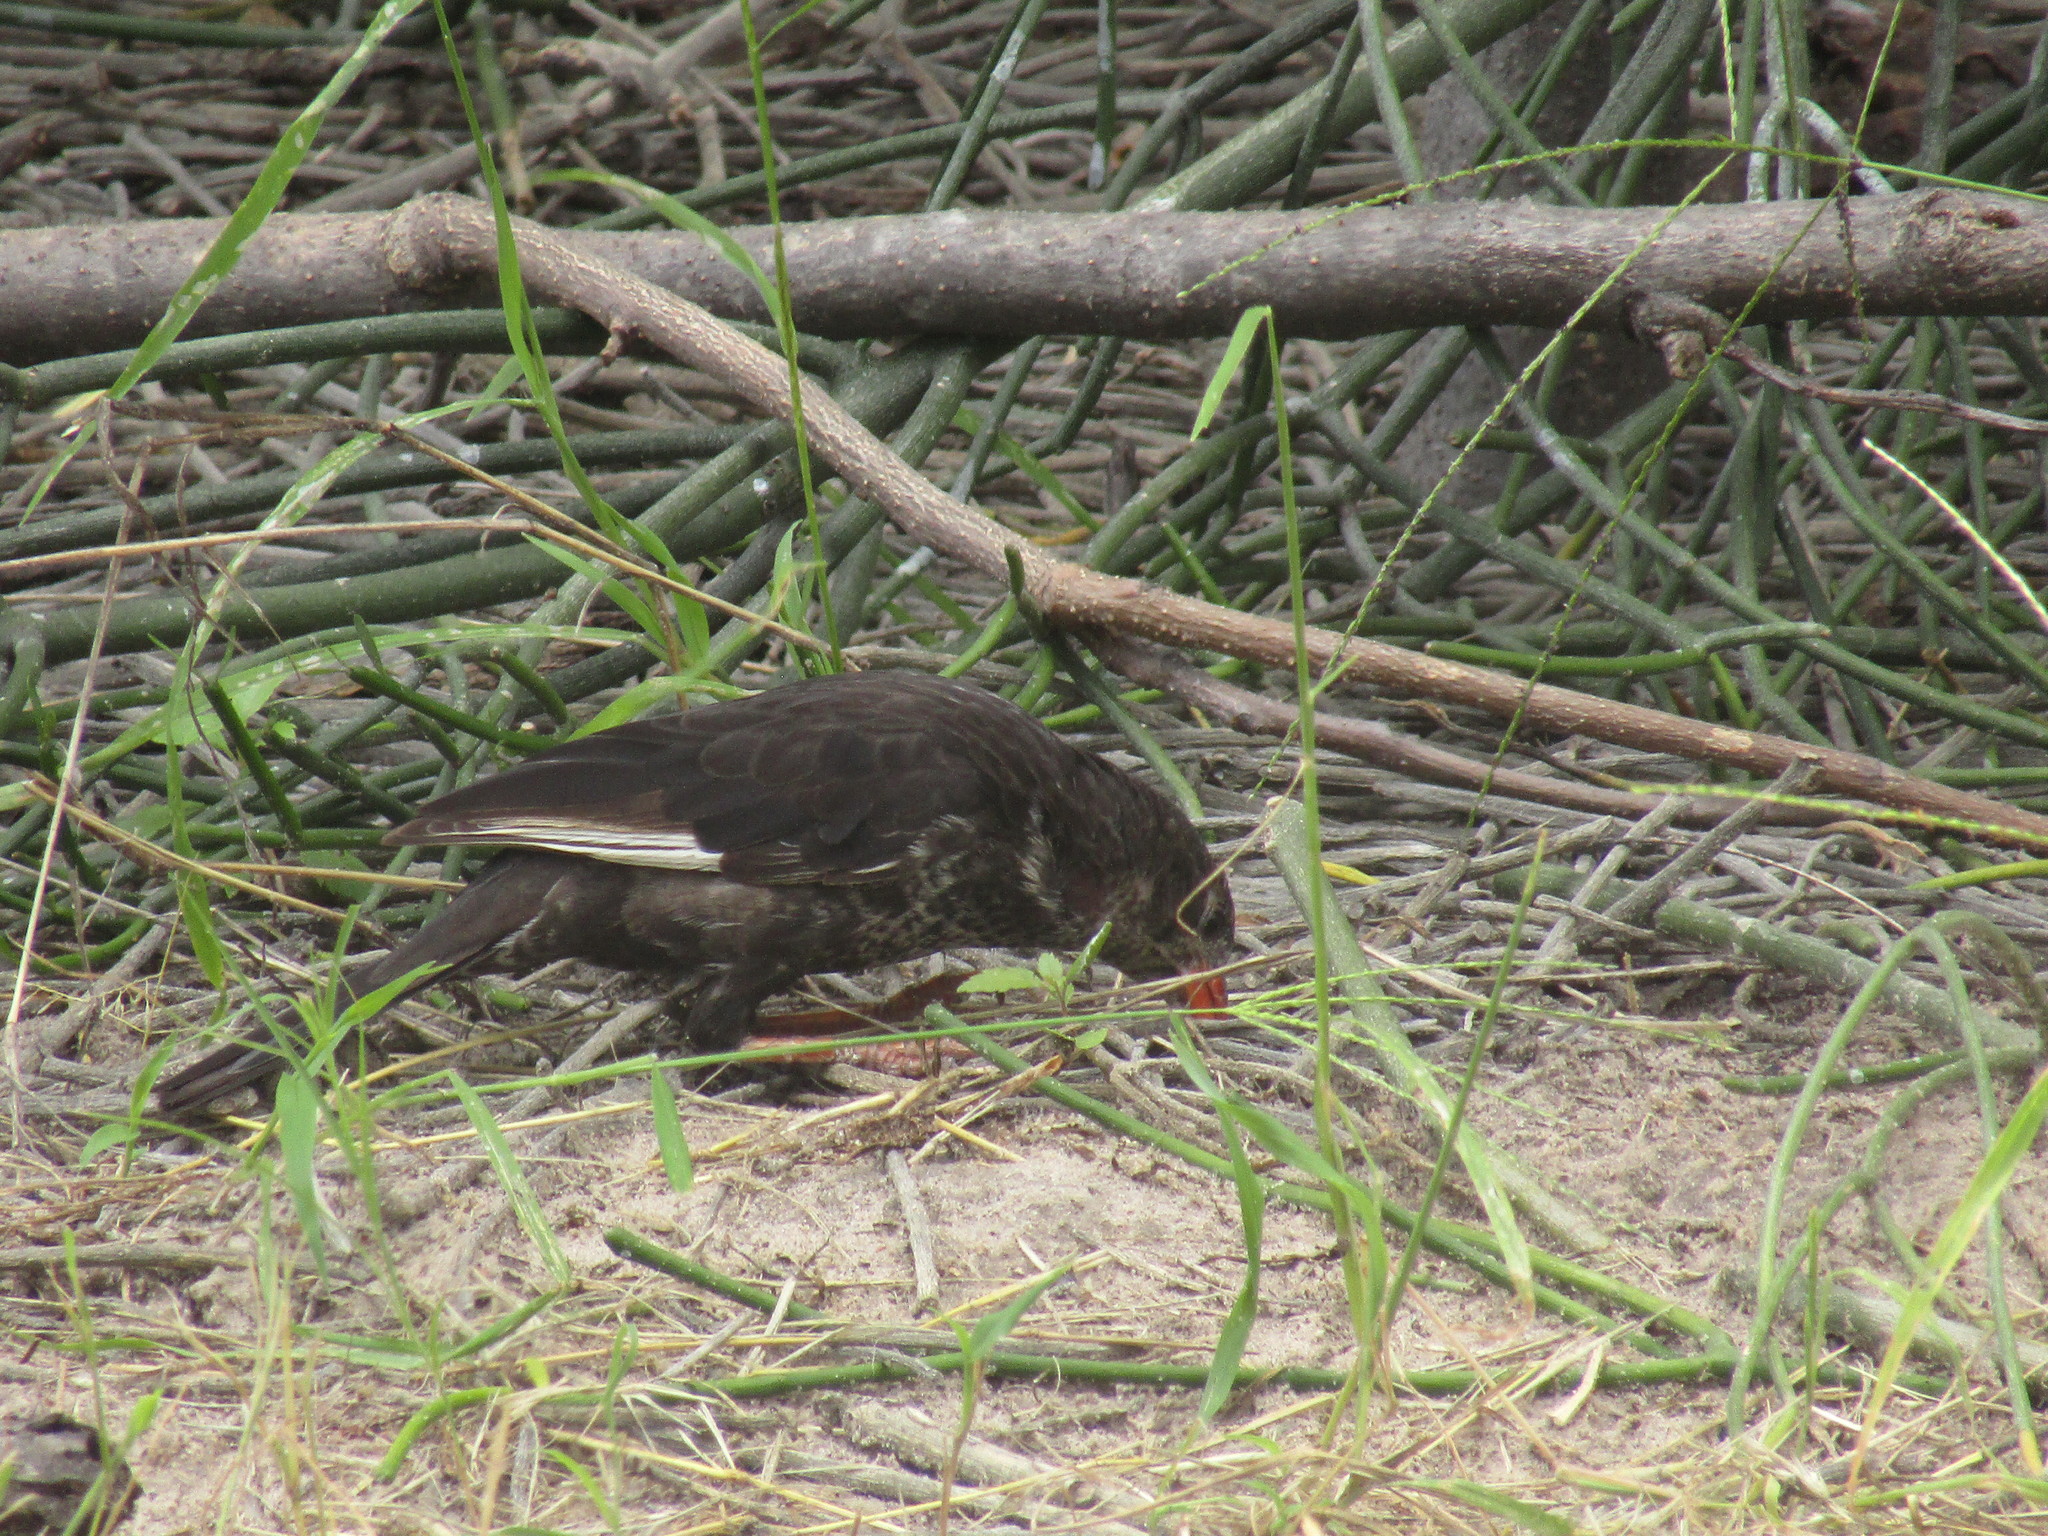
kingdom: Animalia
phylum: Chordata
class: Aves
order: Passeriformes
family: Ploceidae
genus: Bubalornis
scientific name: Bubalornis niger
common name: Red-billed buffalo weaver
